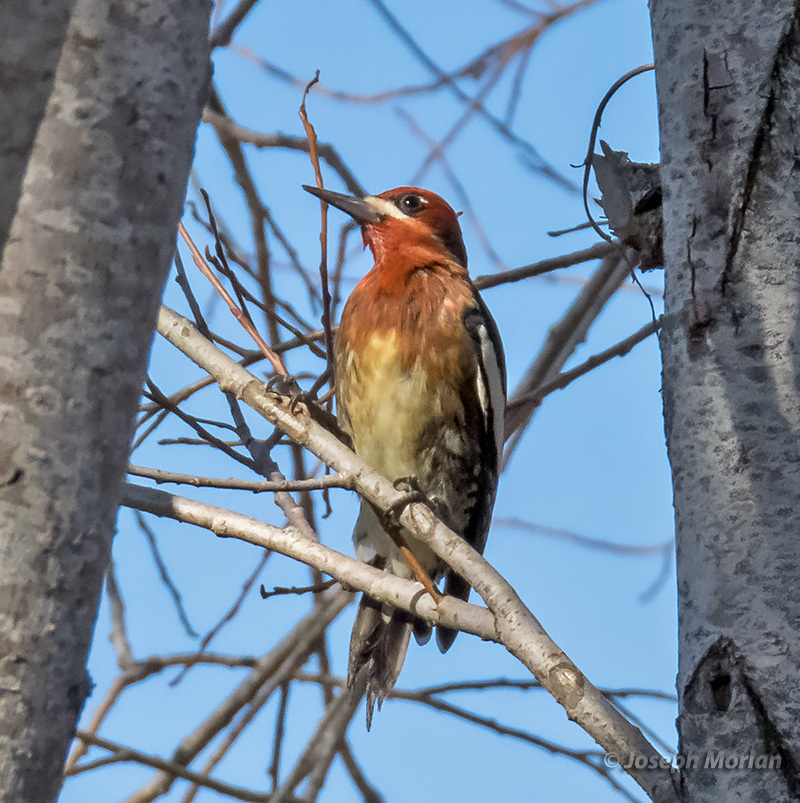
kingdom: Animalia
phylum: Chordata
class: Aves
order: Piciformes
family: Picidae
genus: Sphyrapicus
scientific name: Sphyrapicus ruber
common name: Red-breasted sapsucker
